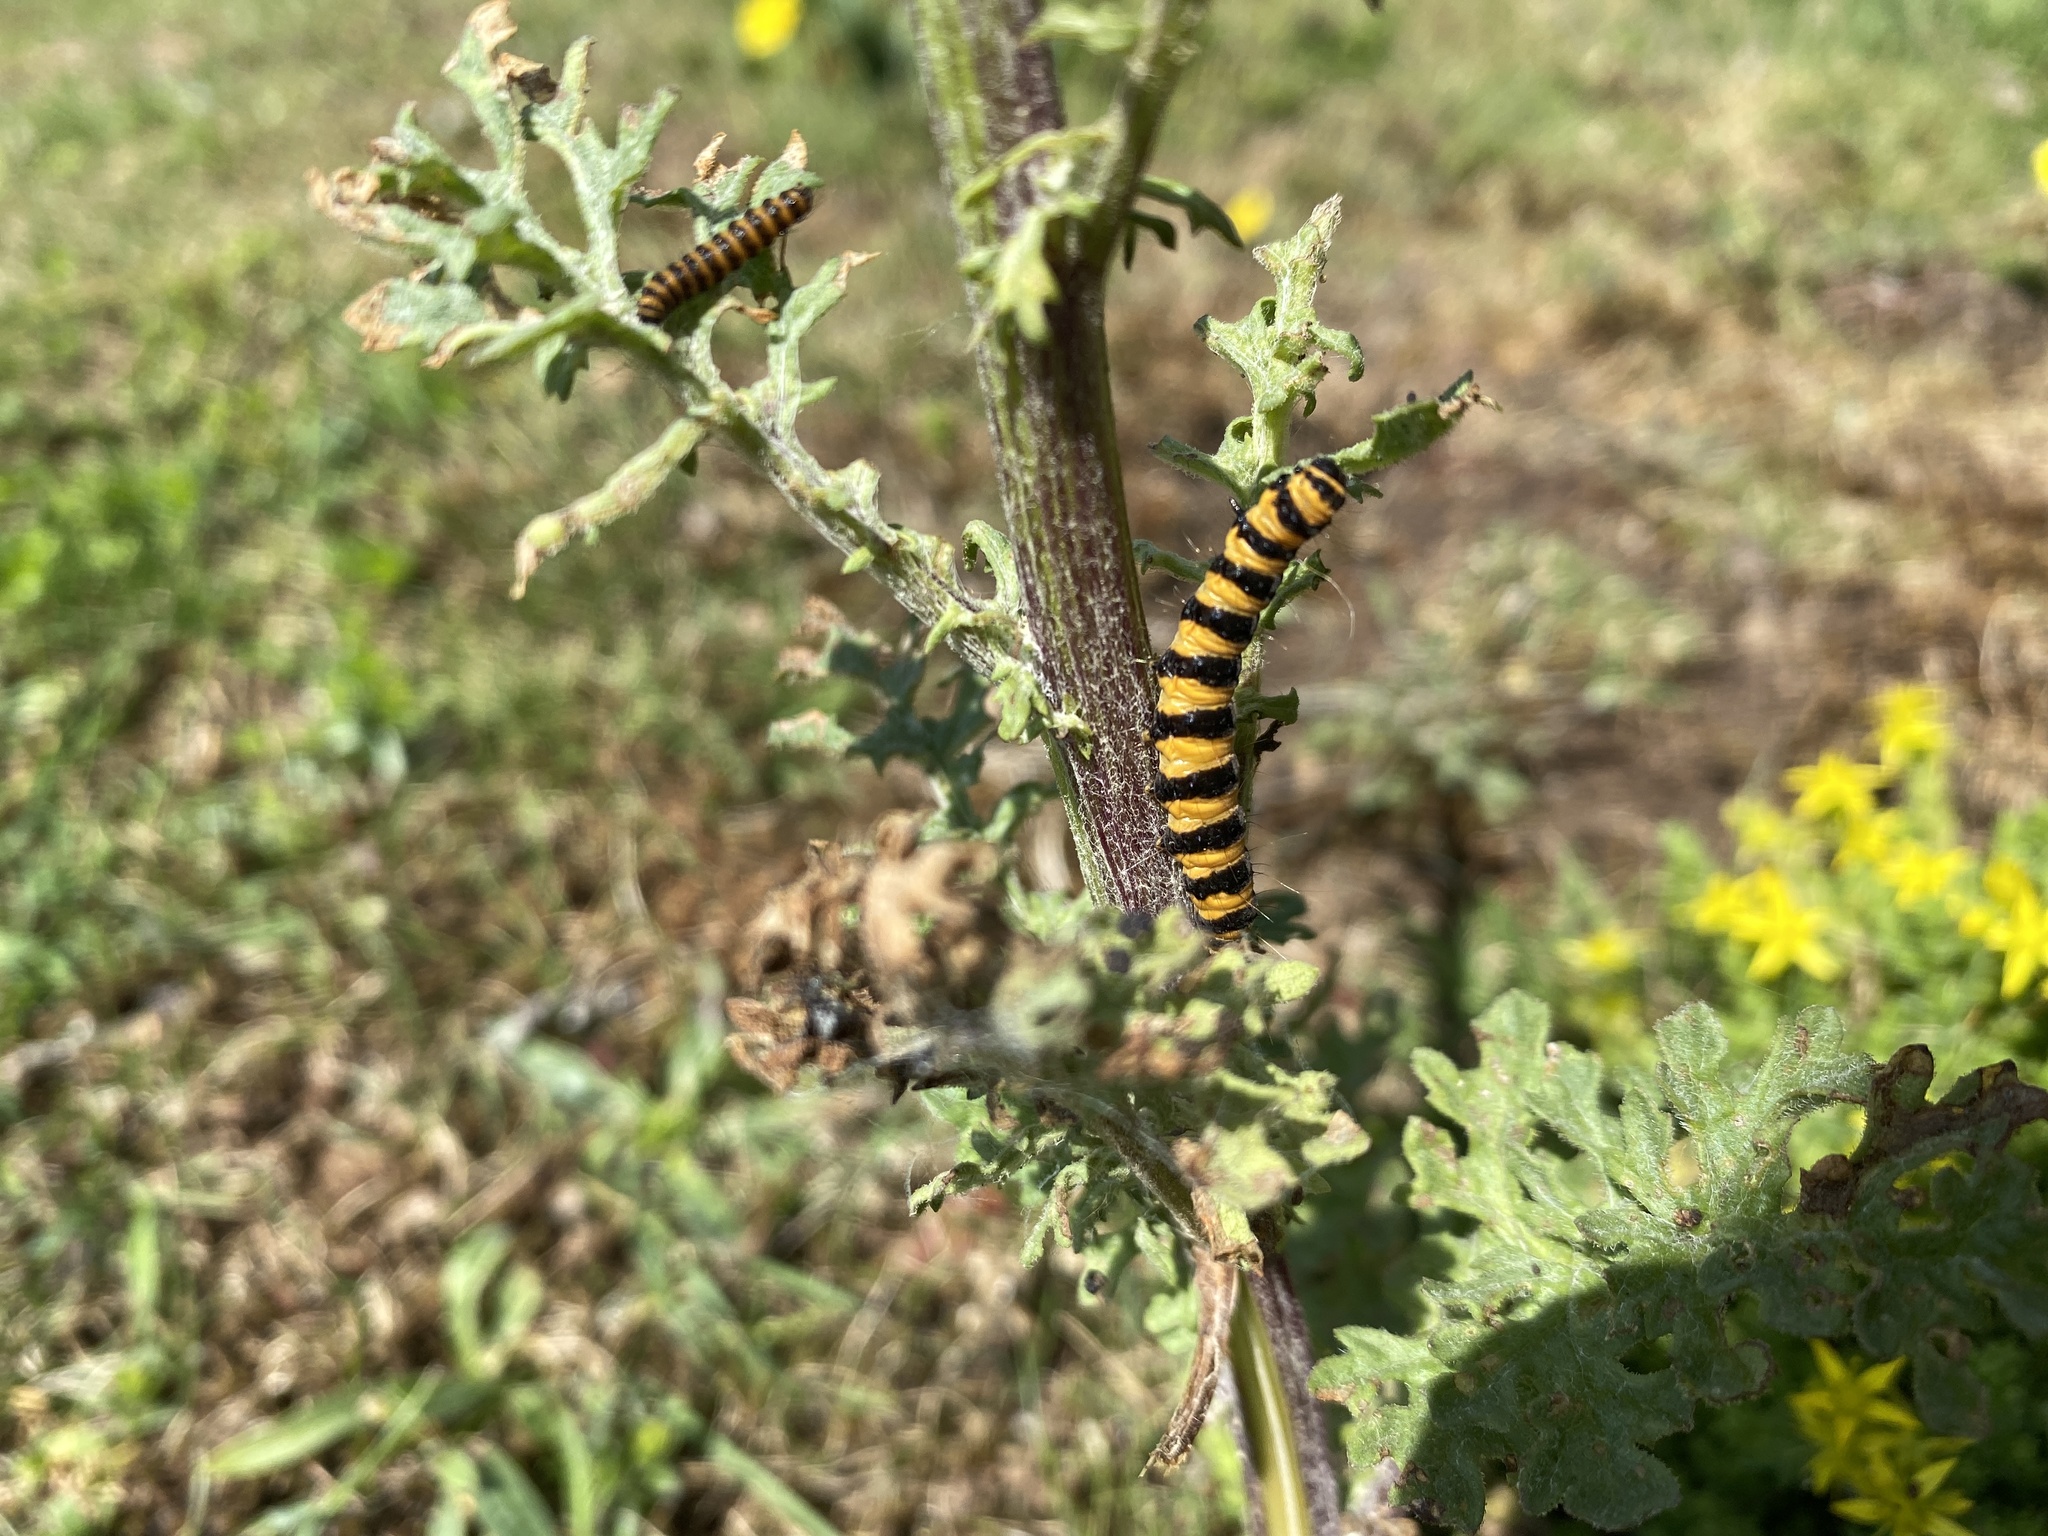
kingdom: Animalia
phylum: Arthropoda
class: Insecta
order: Lepidoptera
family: Erebidae
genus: Tyria
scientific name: Tyria jacobaeae
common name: Cinnabar
